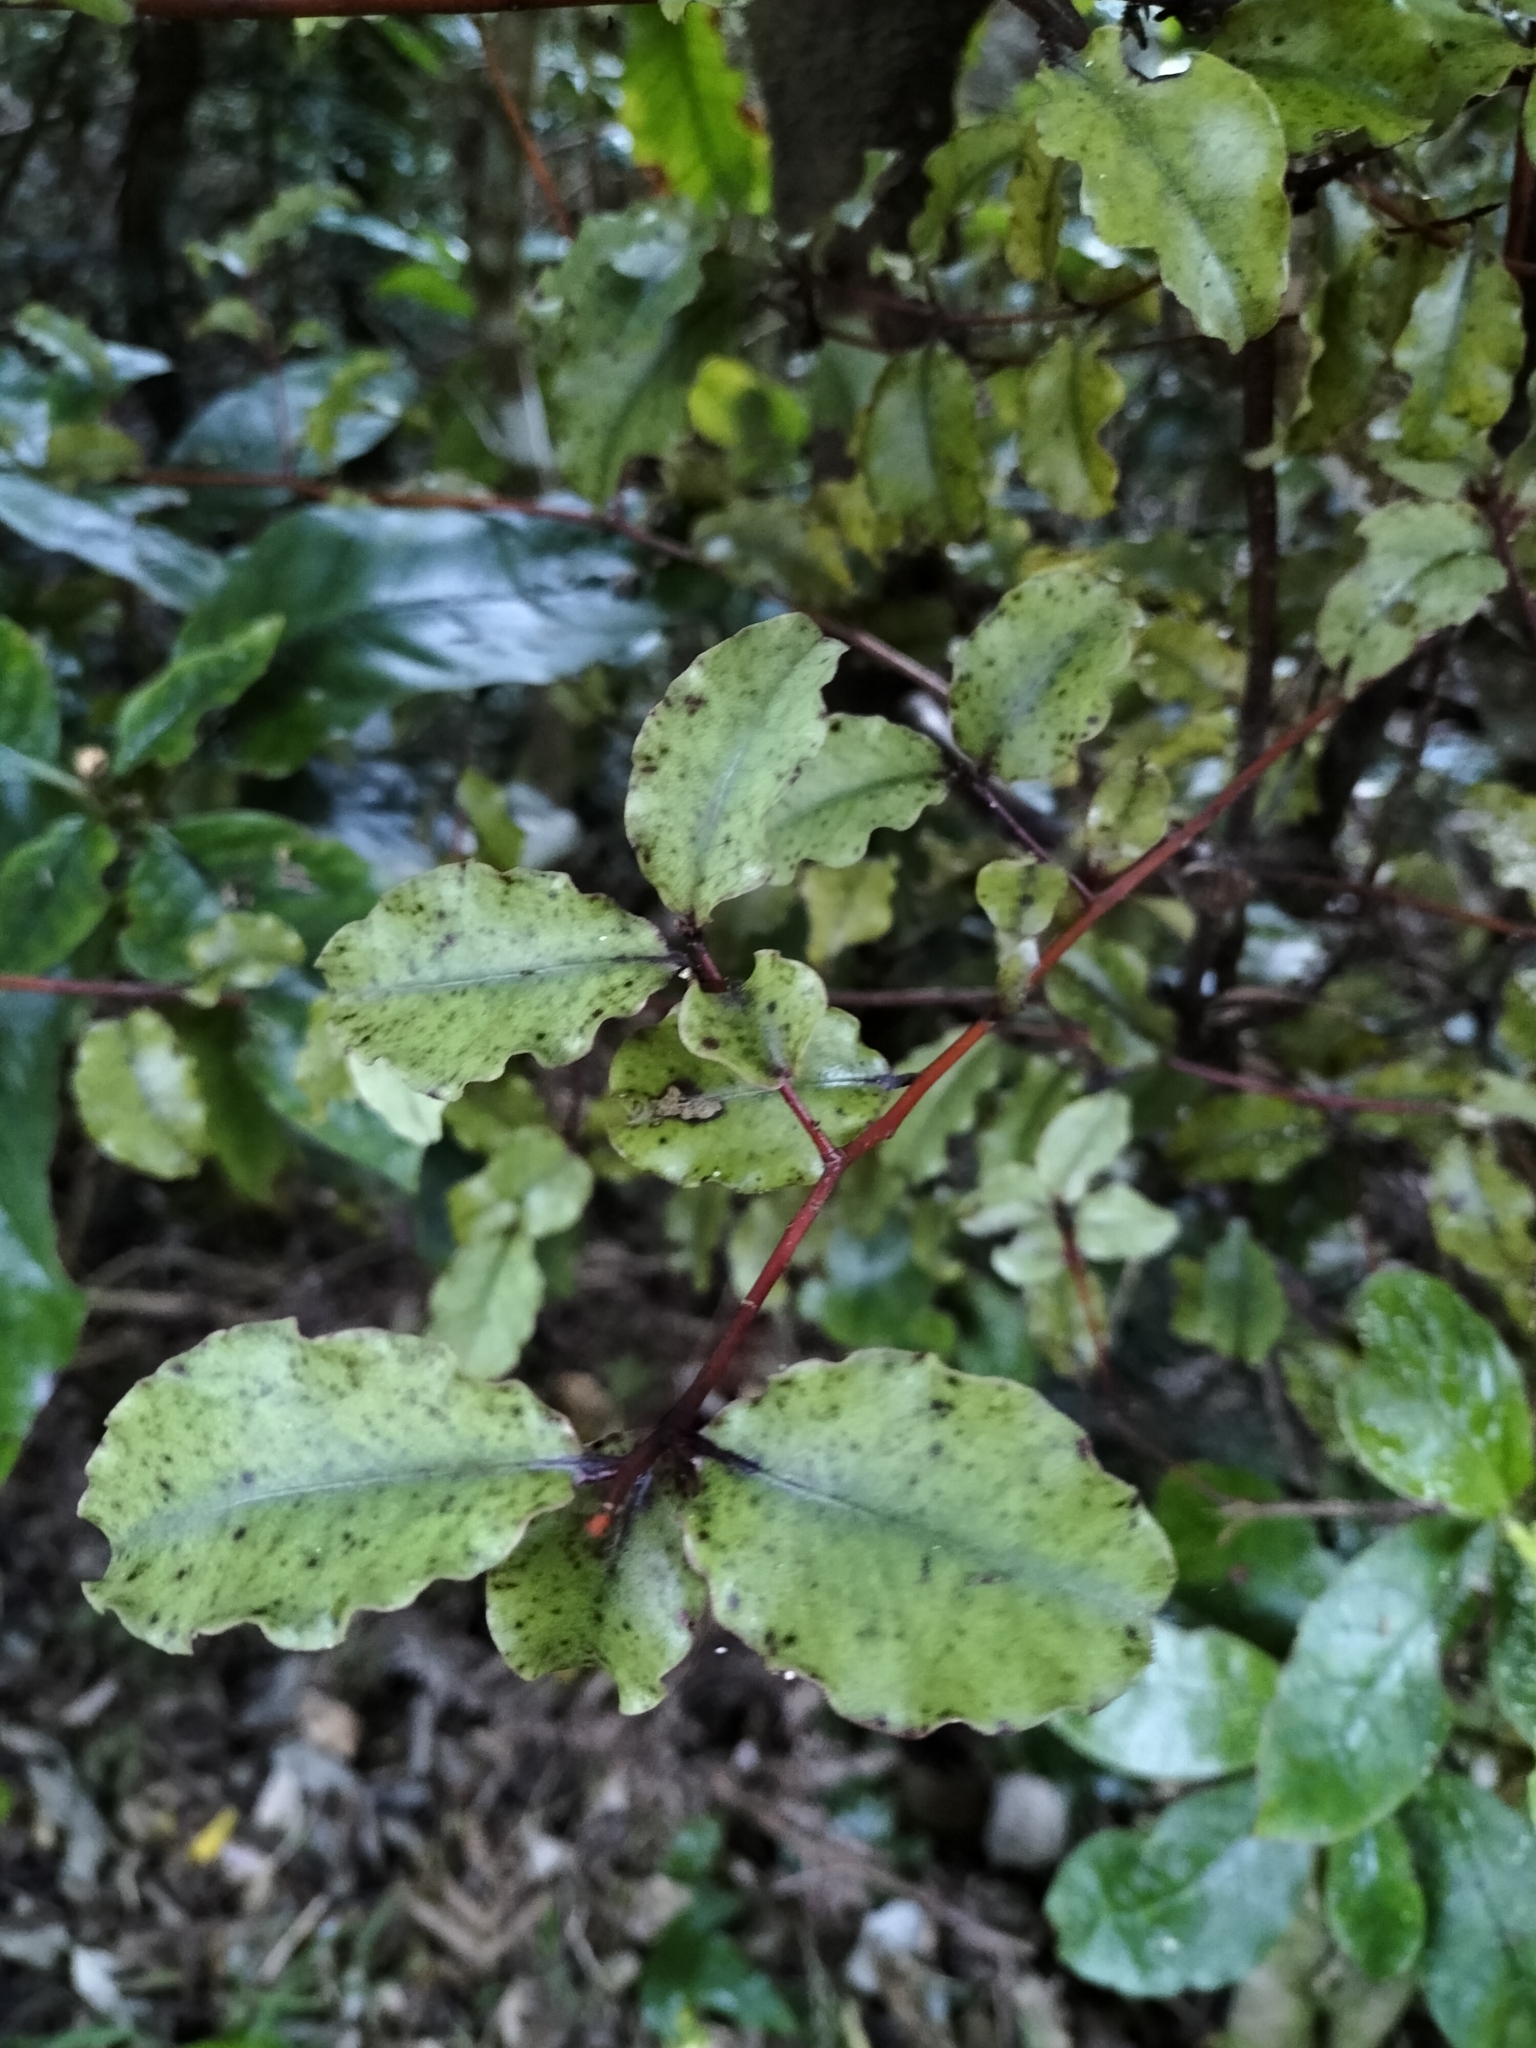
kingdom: Plantae
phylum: Tracheophyta
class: Magnoliopsida
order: Ericales
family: Primulaceae
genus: Myrsine
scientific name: Myrsine australis
